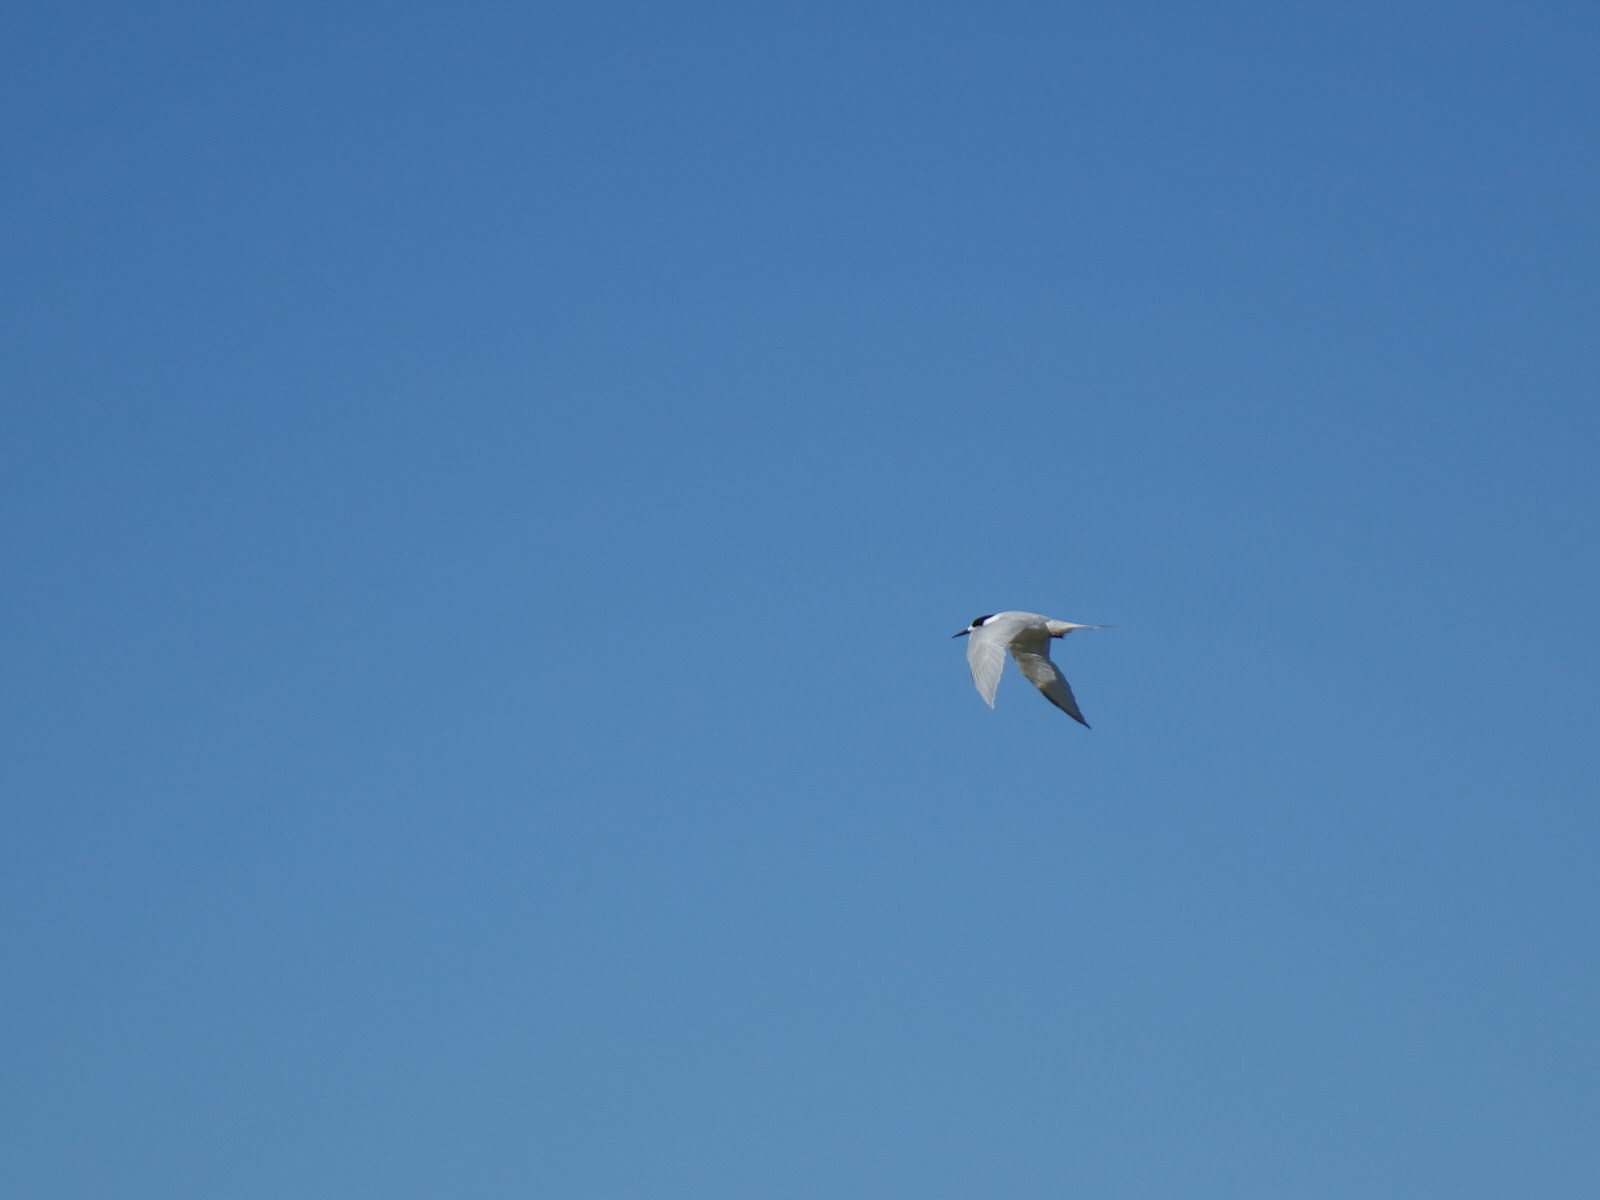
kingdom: Animalia
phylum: Chordata
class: Aves
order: Charadriiformes
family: Laridae
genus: Sterna
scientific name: Sterna striata
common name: White-fronted tern
